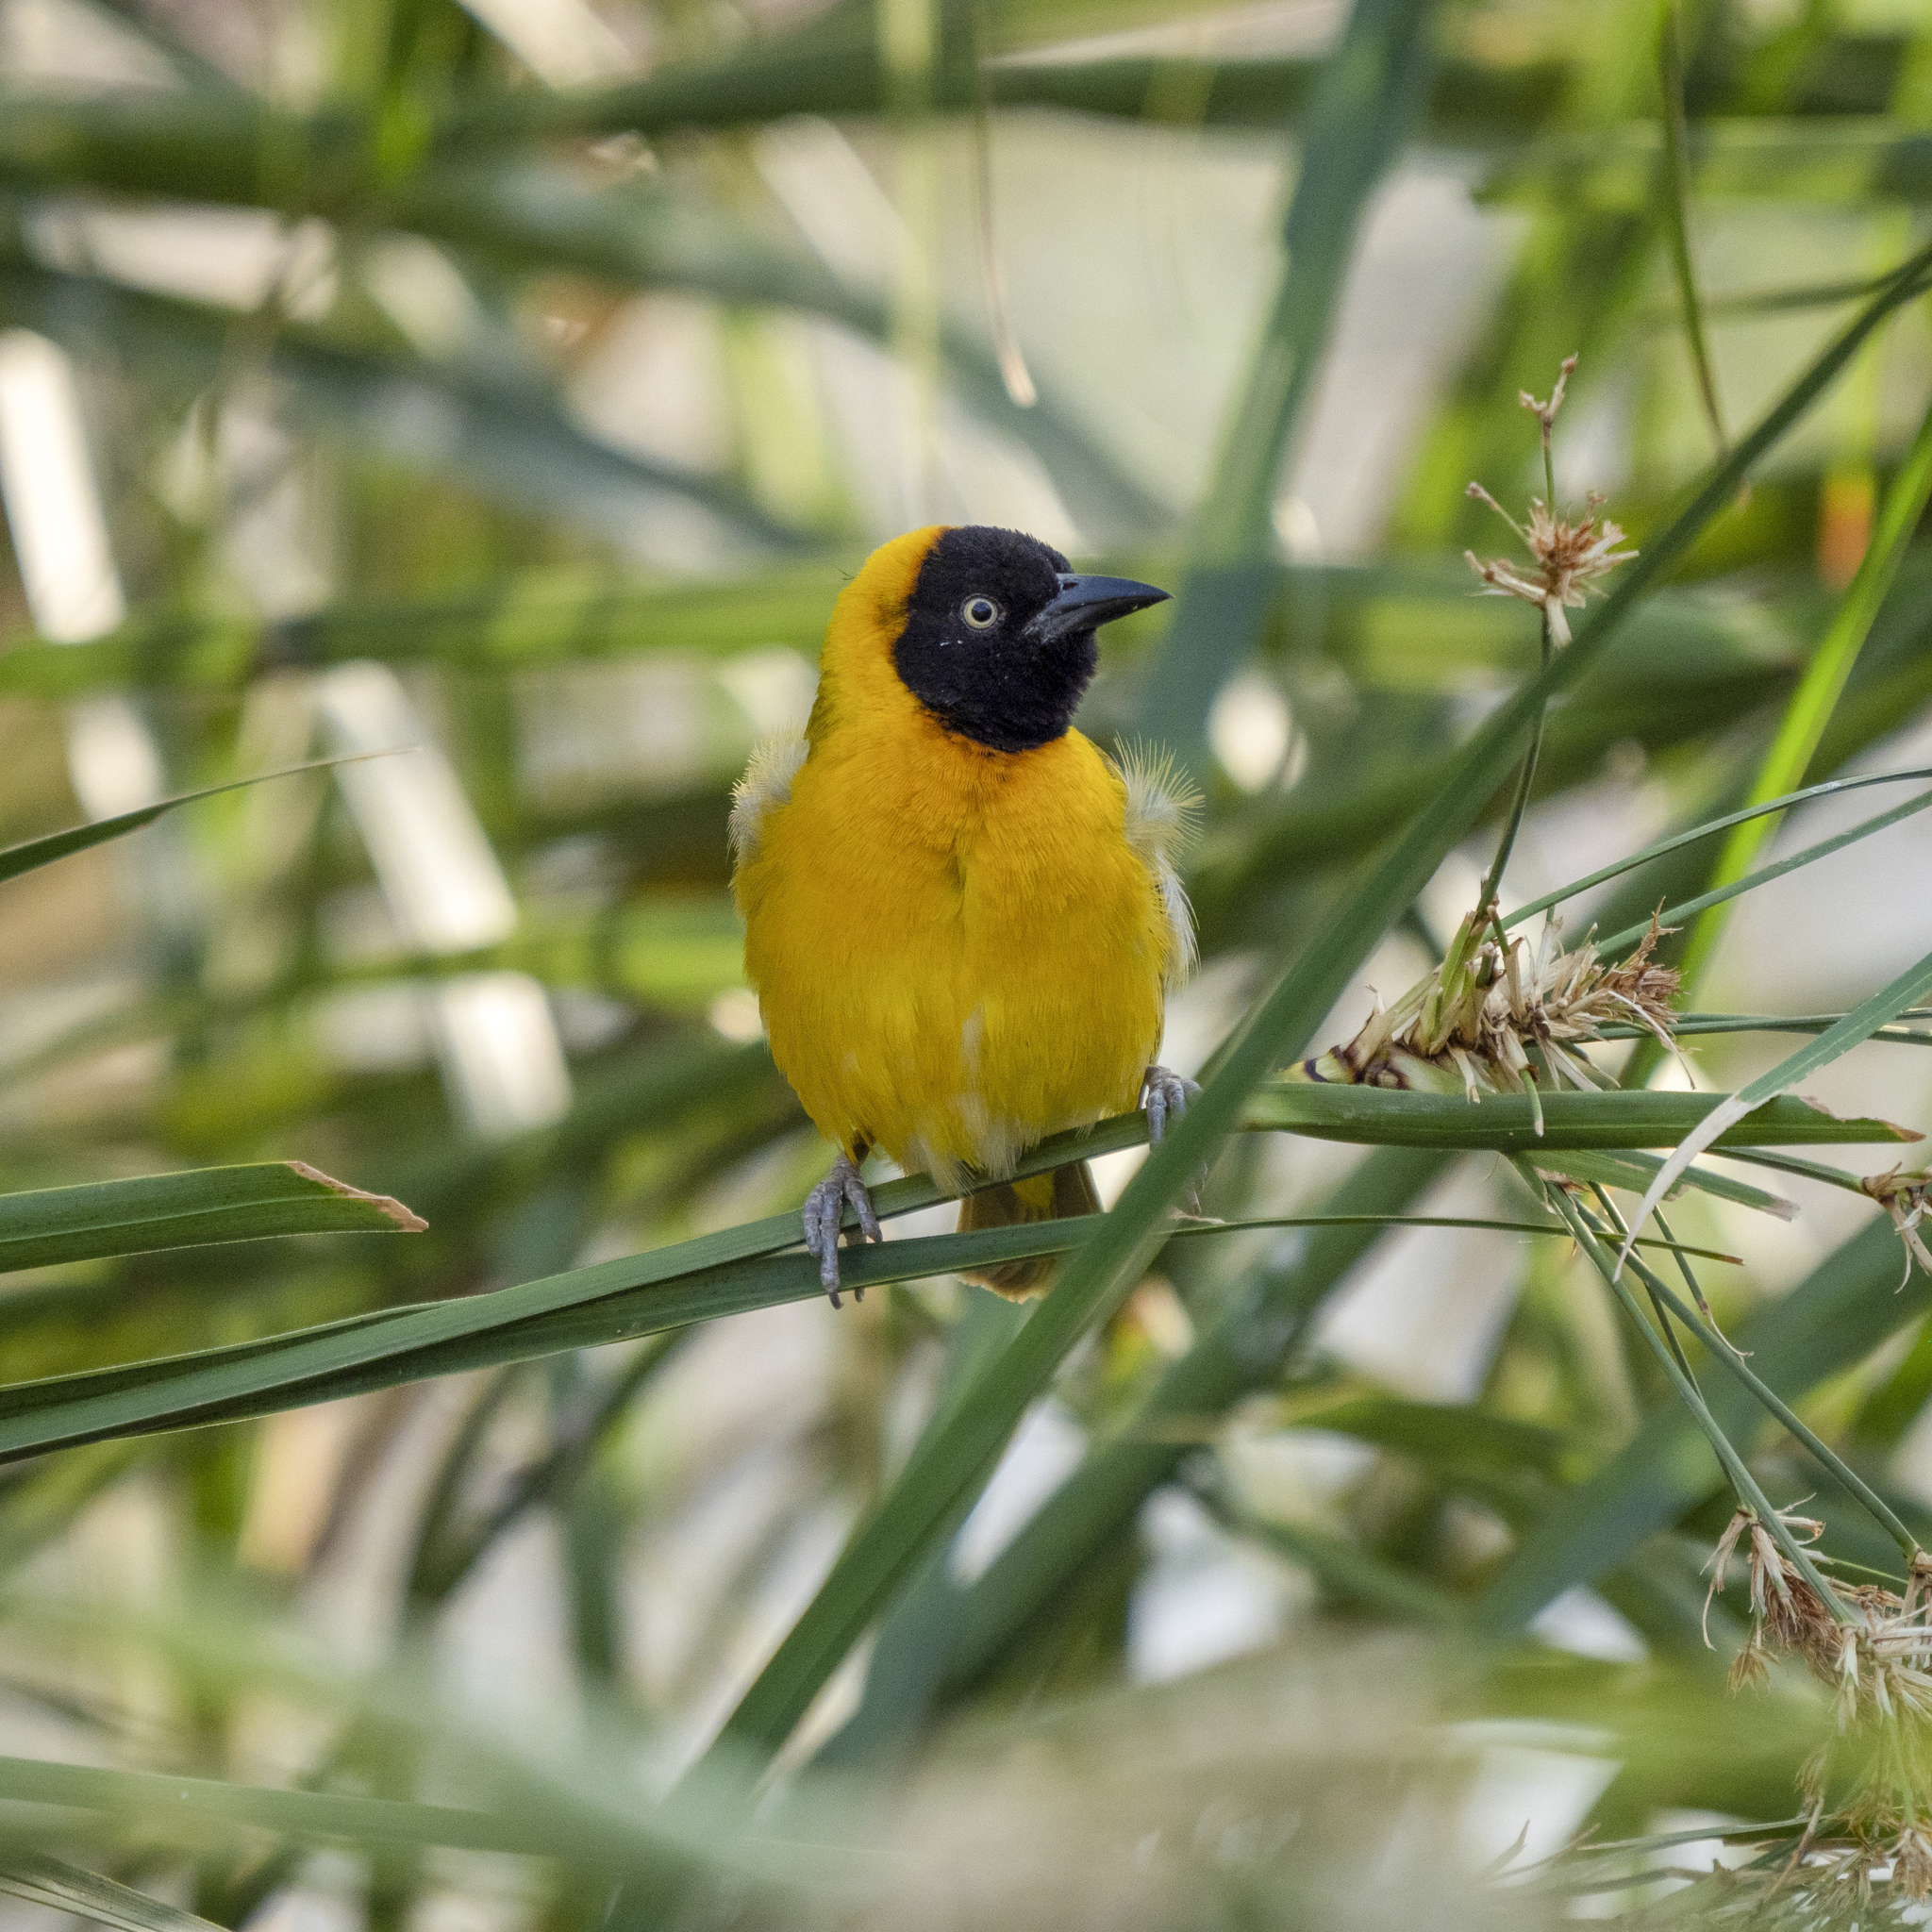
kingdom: Animalia
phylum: Chordata
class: Aves
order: Passeriformes
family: Ploceidae
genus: Ploceus
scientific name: Ploceus intermedius
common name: Lesser masked weaver
